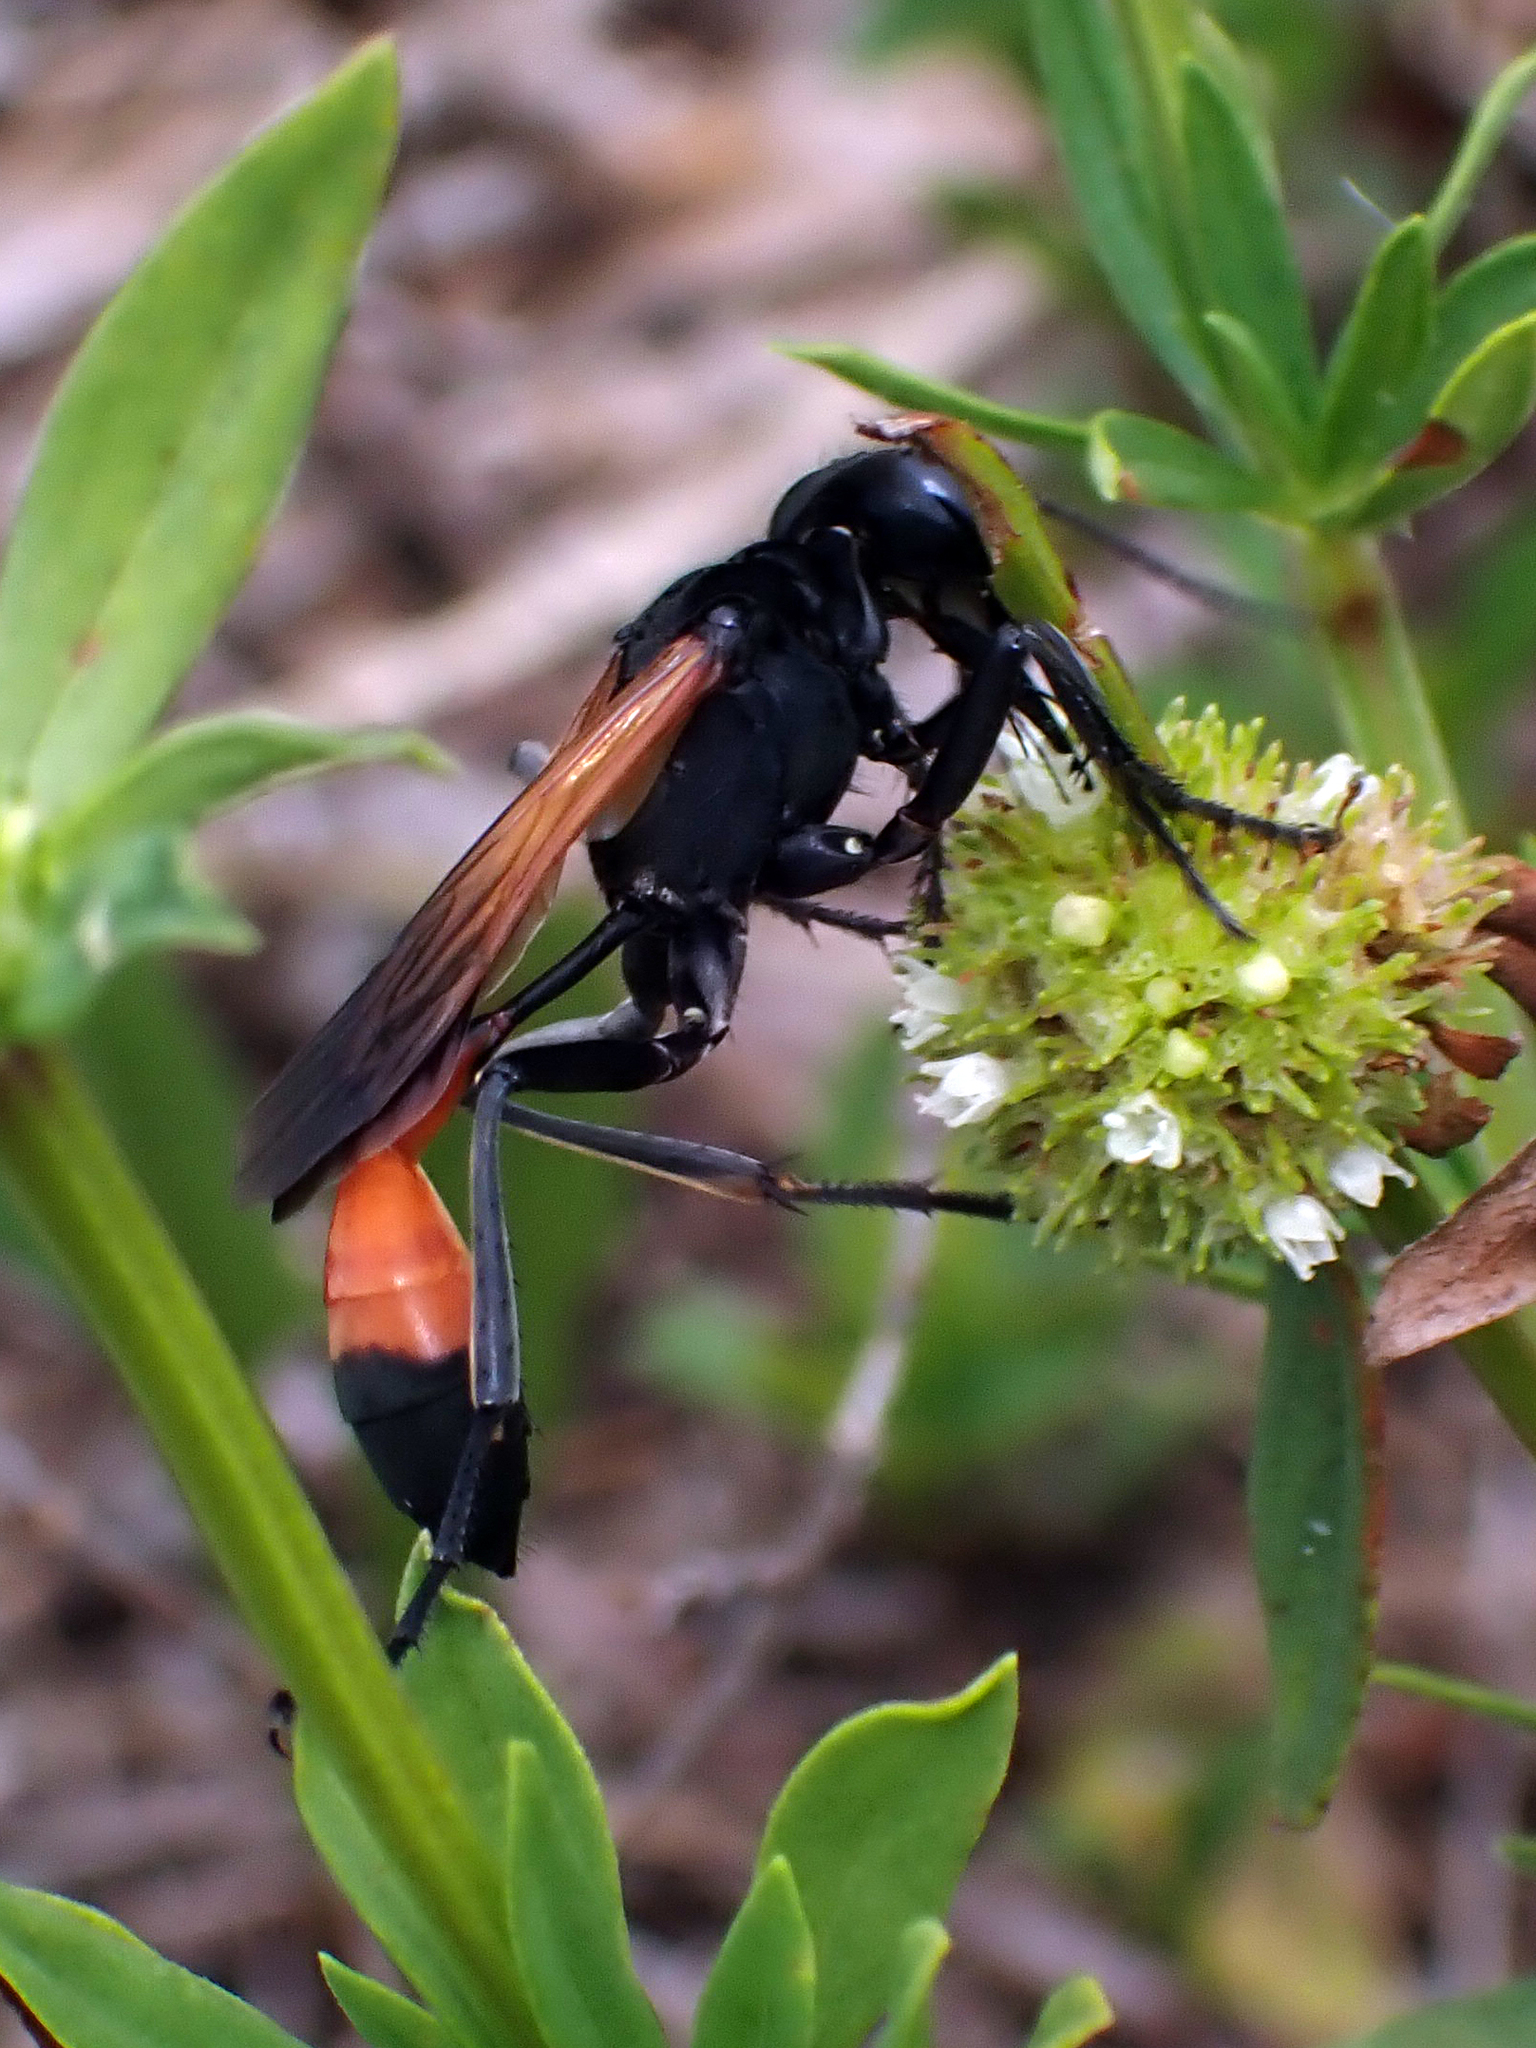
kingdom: Animalia
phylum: Arthropoda
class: Insecta
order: Hymenoptera
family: Sphecidae
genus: Ammophila
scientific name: Ammophila pictipennis
